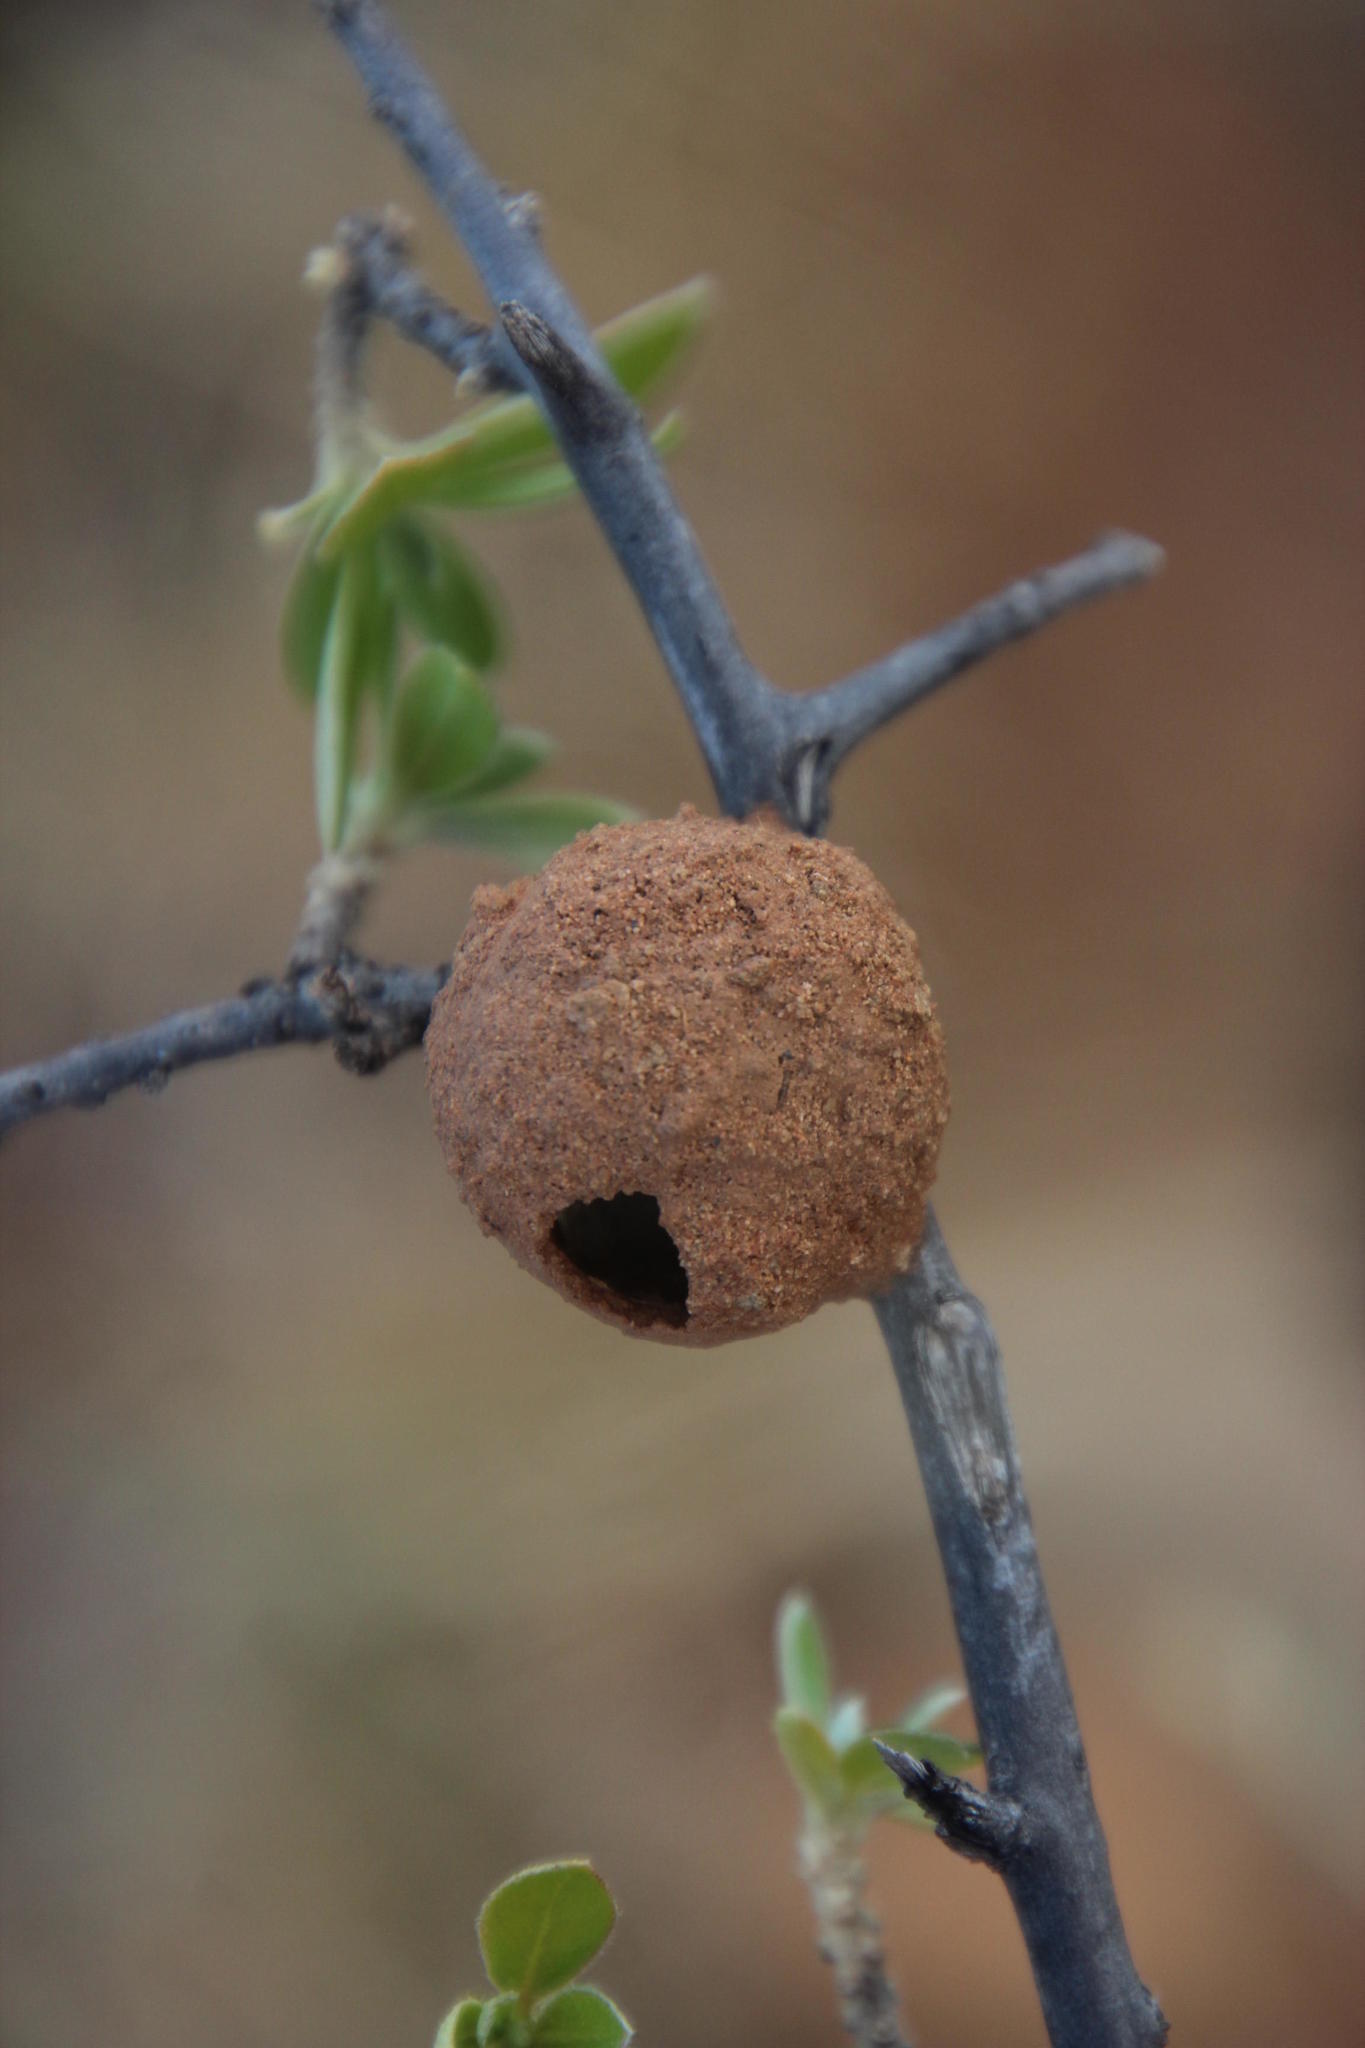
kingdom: Animalia
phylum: Arthropoda
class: Insecta
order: Hymenoptera
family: Eumenidae
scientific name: Eumenidae
